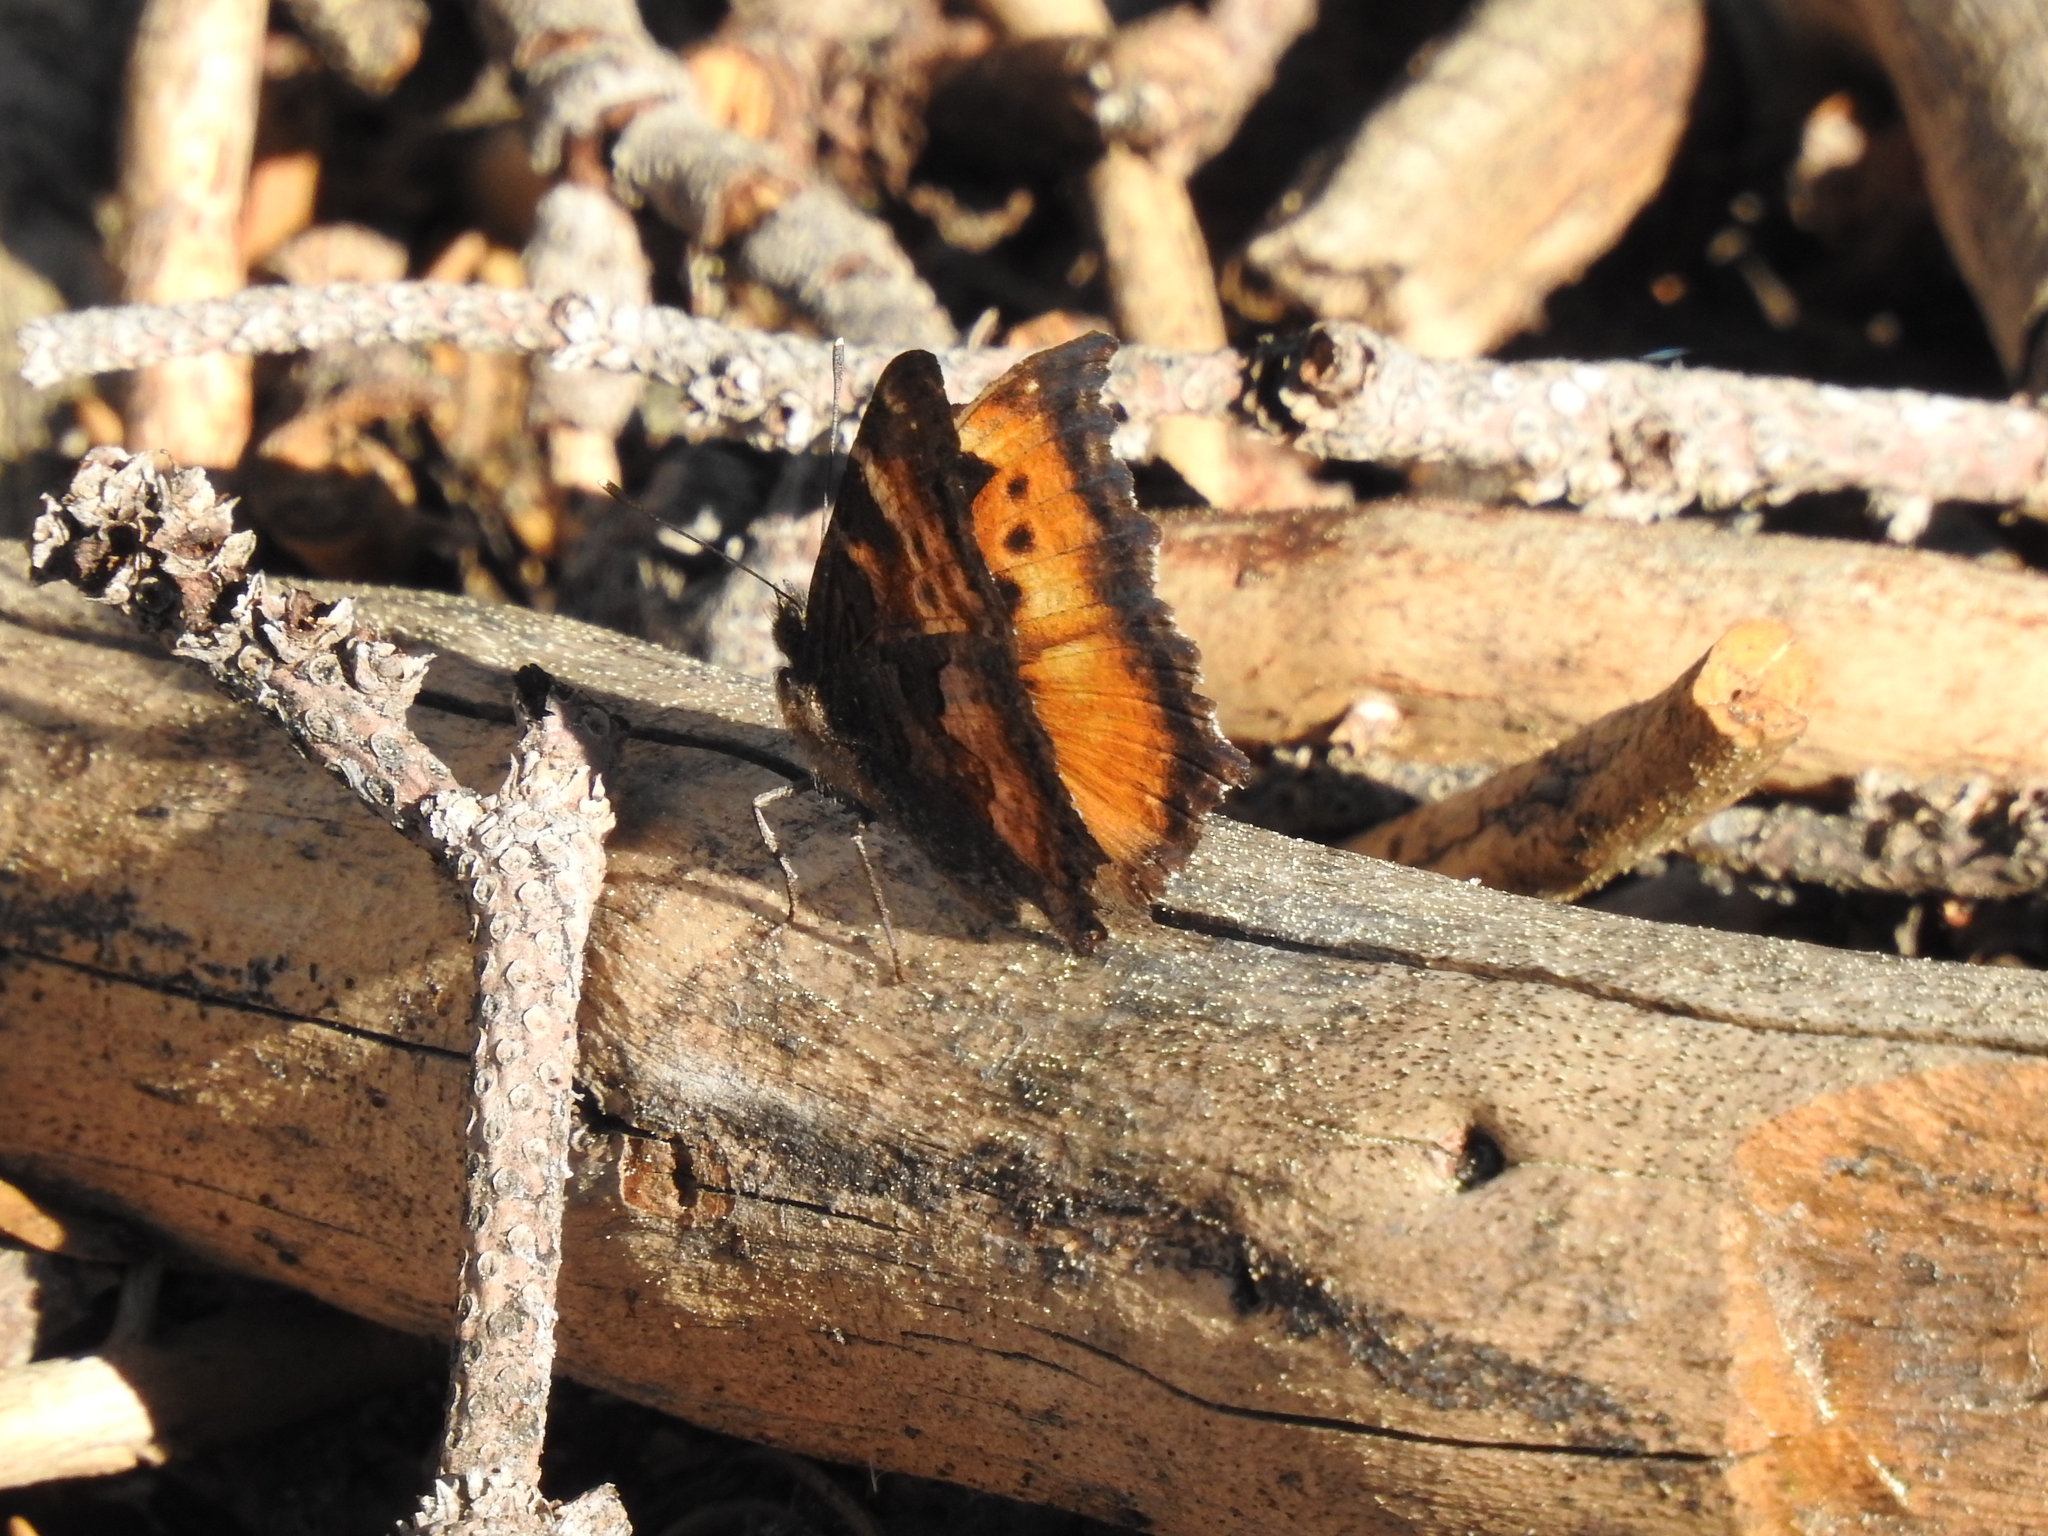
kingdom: Animalia
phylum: Arthropoda
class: Insecta
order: Lepidoptera
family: Nymphalidae
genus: Nymphalis
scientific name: Nymphalis californica
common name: California tortoiseshell
